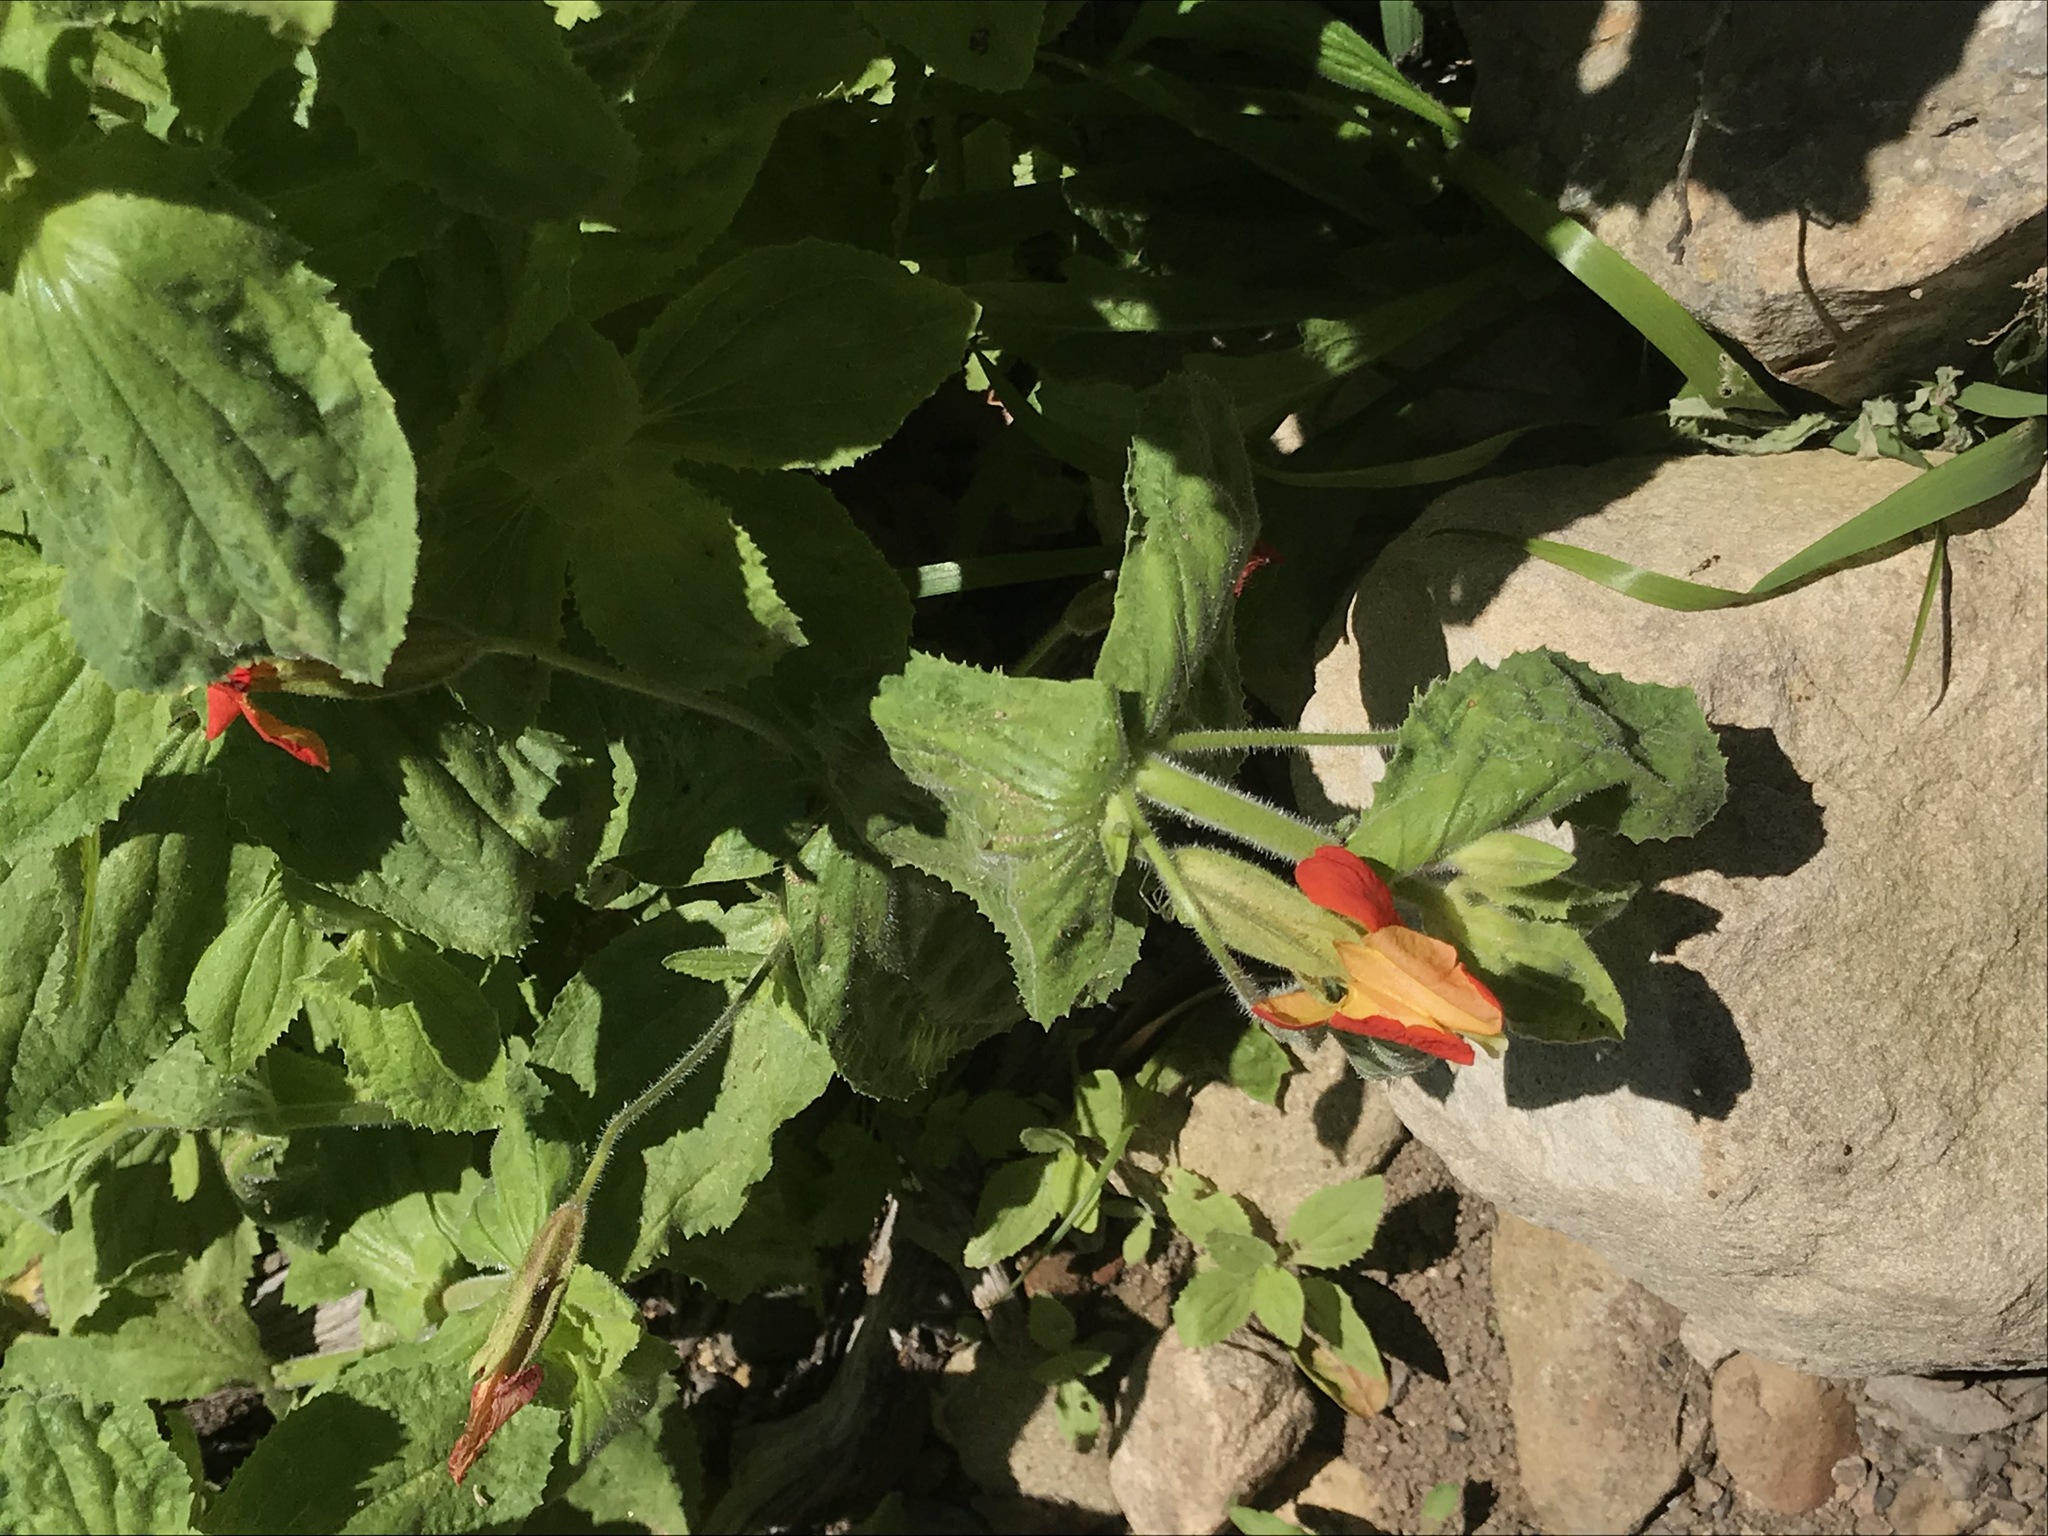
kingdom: Plantae
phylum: Tracheophyta
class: Magnoliopsida
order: Lamiales
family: Phrymaceae
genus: Erythranthe
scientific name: Erythranthe cardinalis
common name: Scarlet monkey-flower
